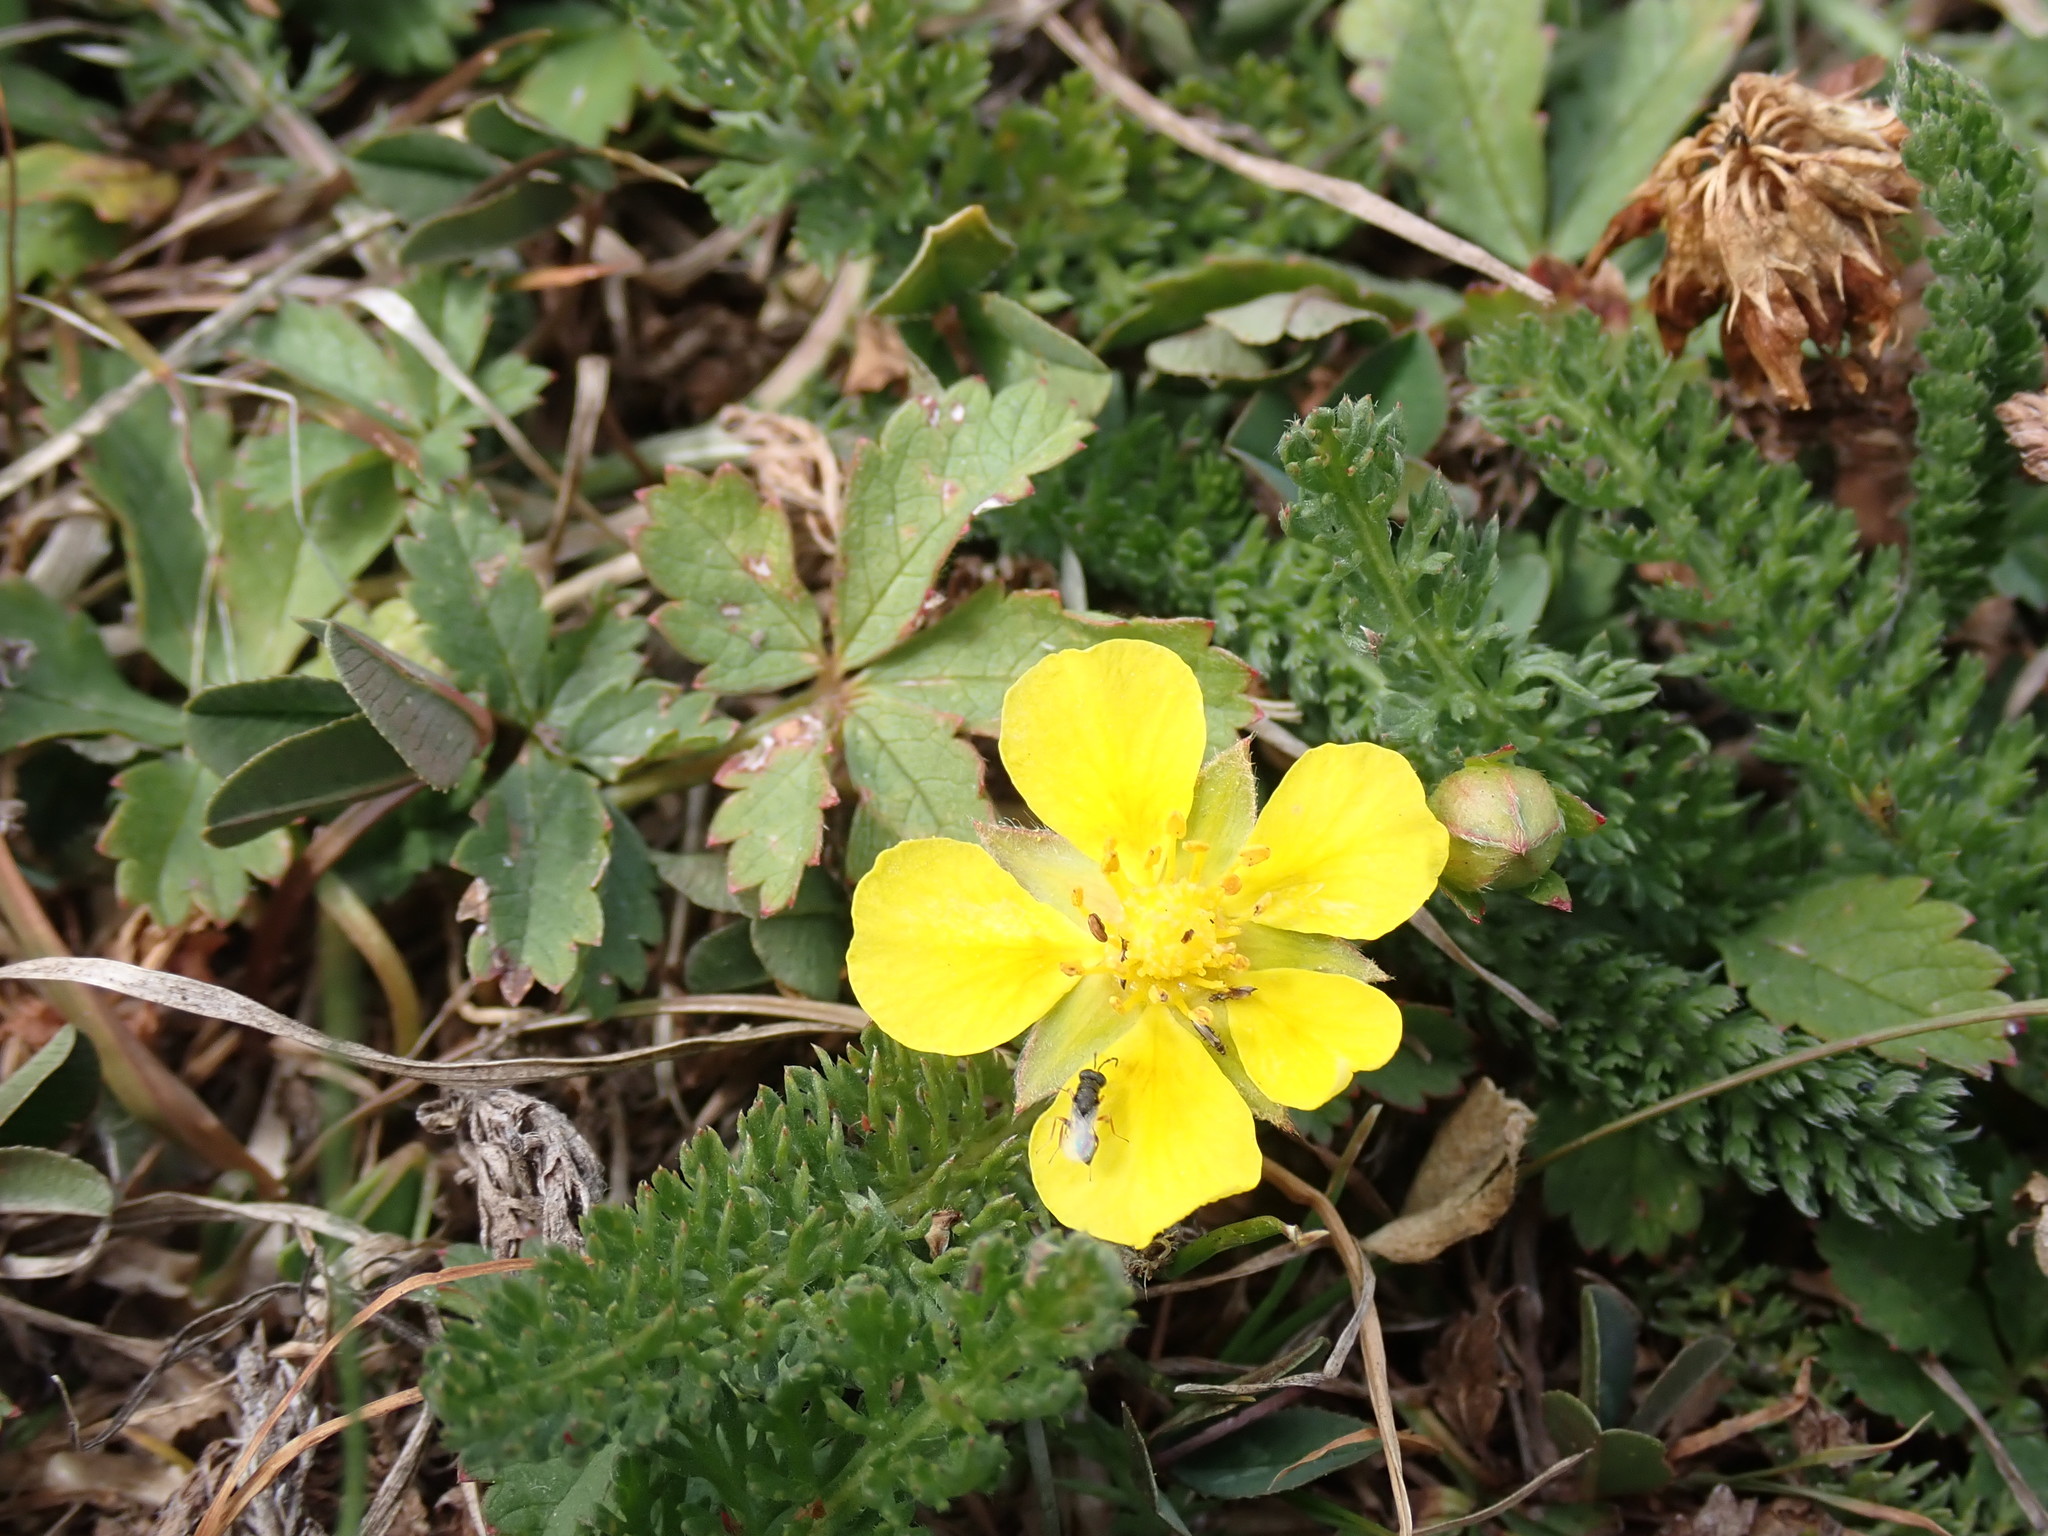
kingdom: Plantae
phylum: Tracheophyta
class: Magnoliopsida
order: Rosales
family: Rosaceae
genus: Potentilla
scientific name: Potentilla reptans
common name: Creeping cinquefoil
